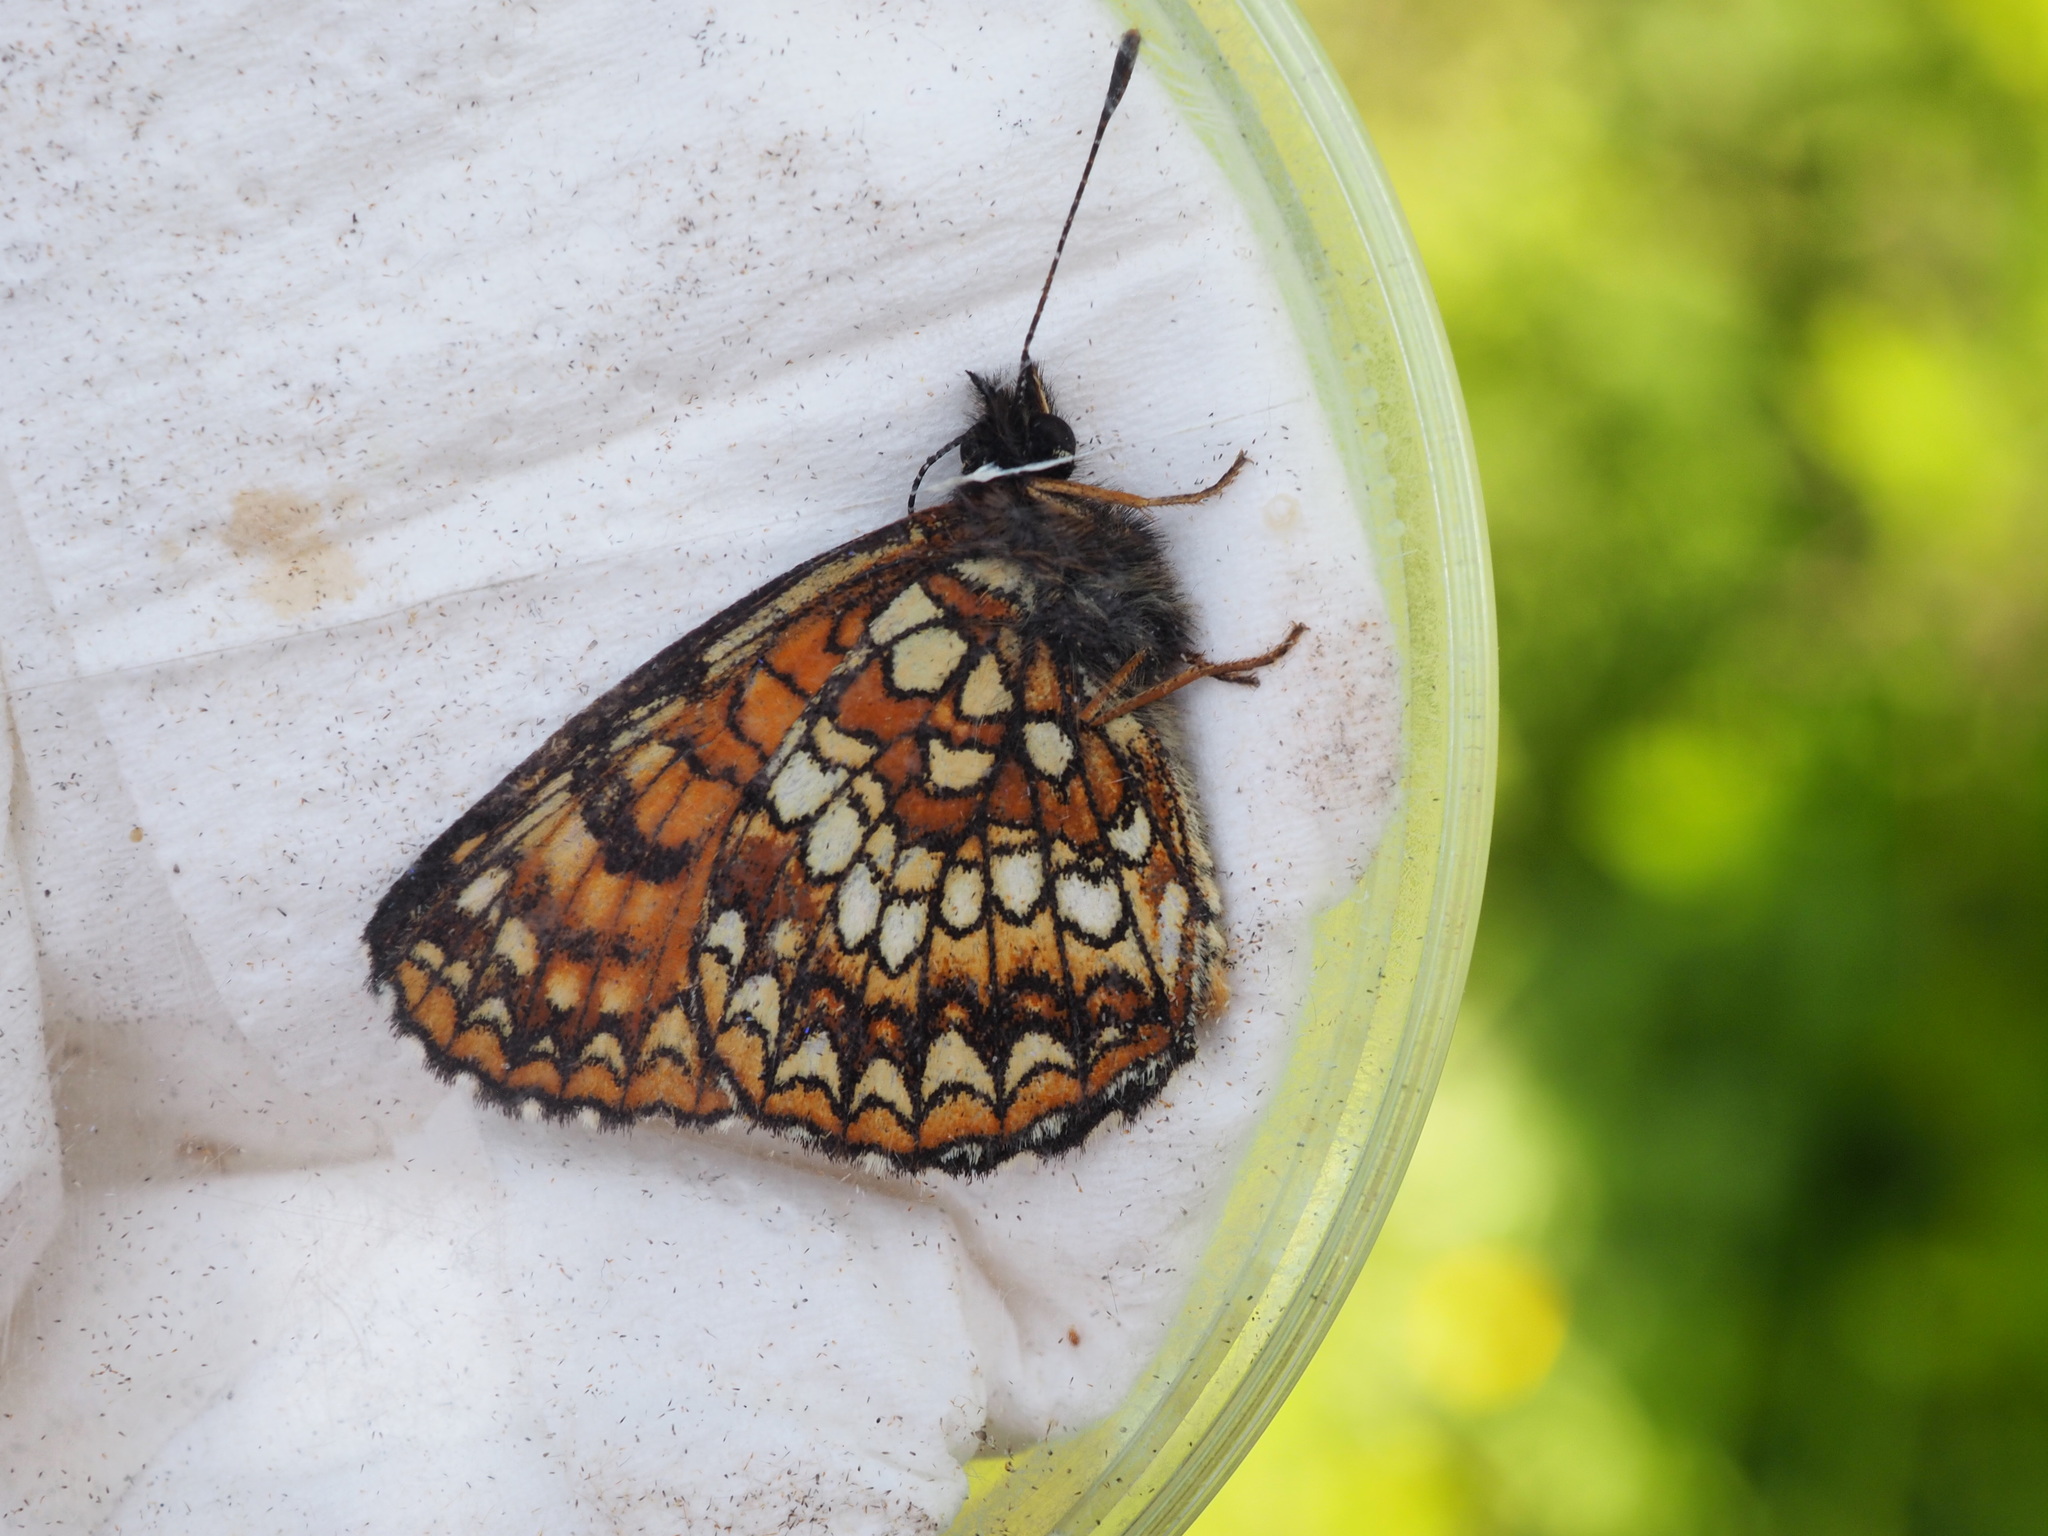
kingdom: Animalia
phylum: Arthropoda
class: Insecta
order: Lepidoptera
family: Nymphalidae
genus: Melitaea
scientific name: Melitaea diamina
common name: False heath fritillary
